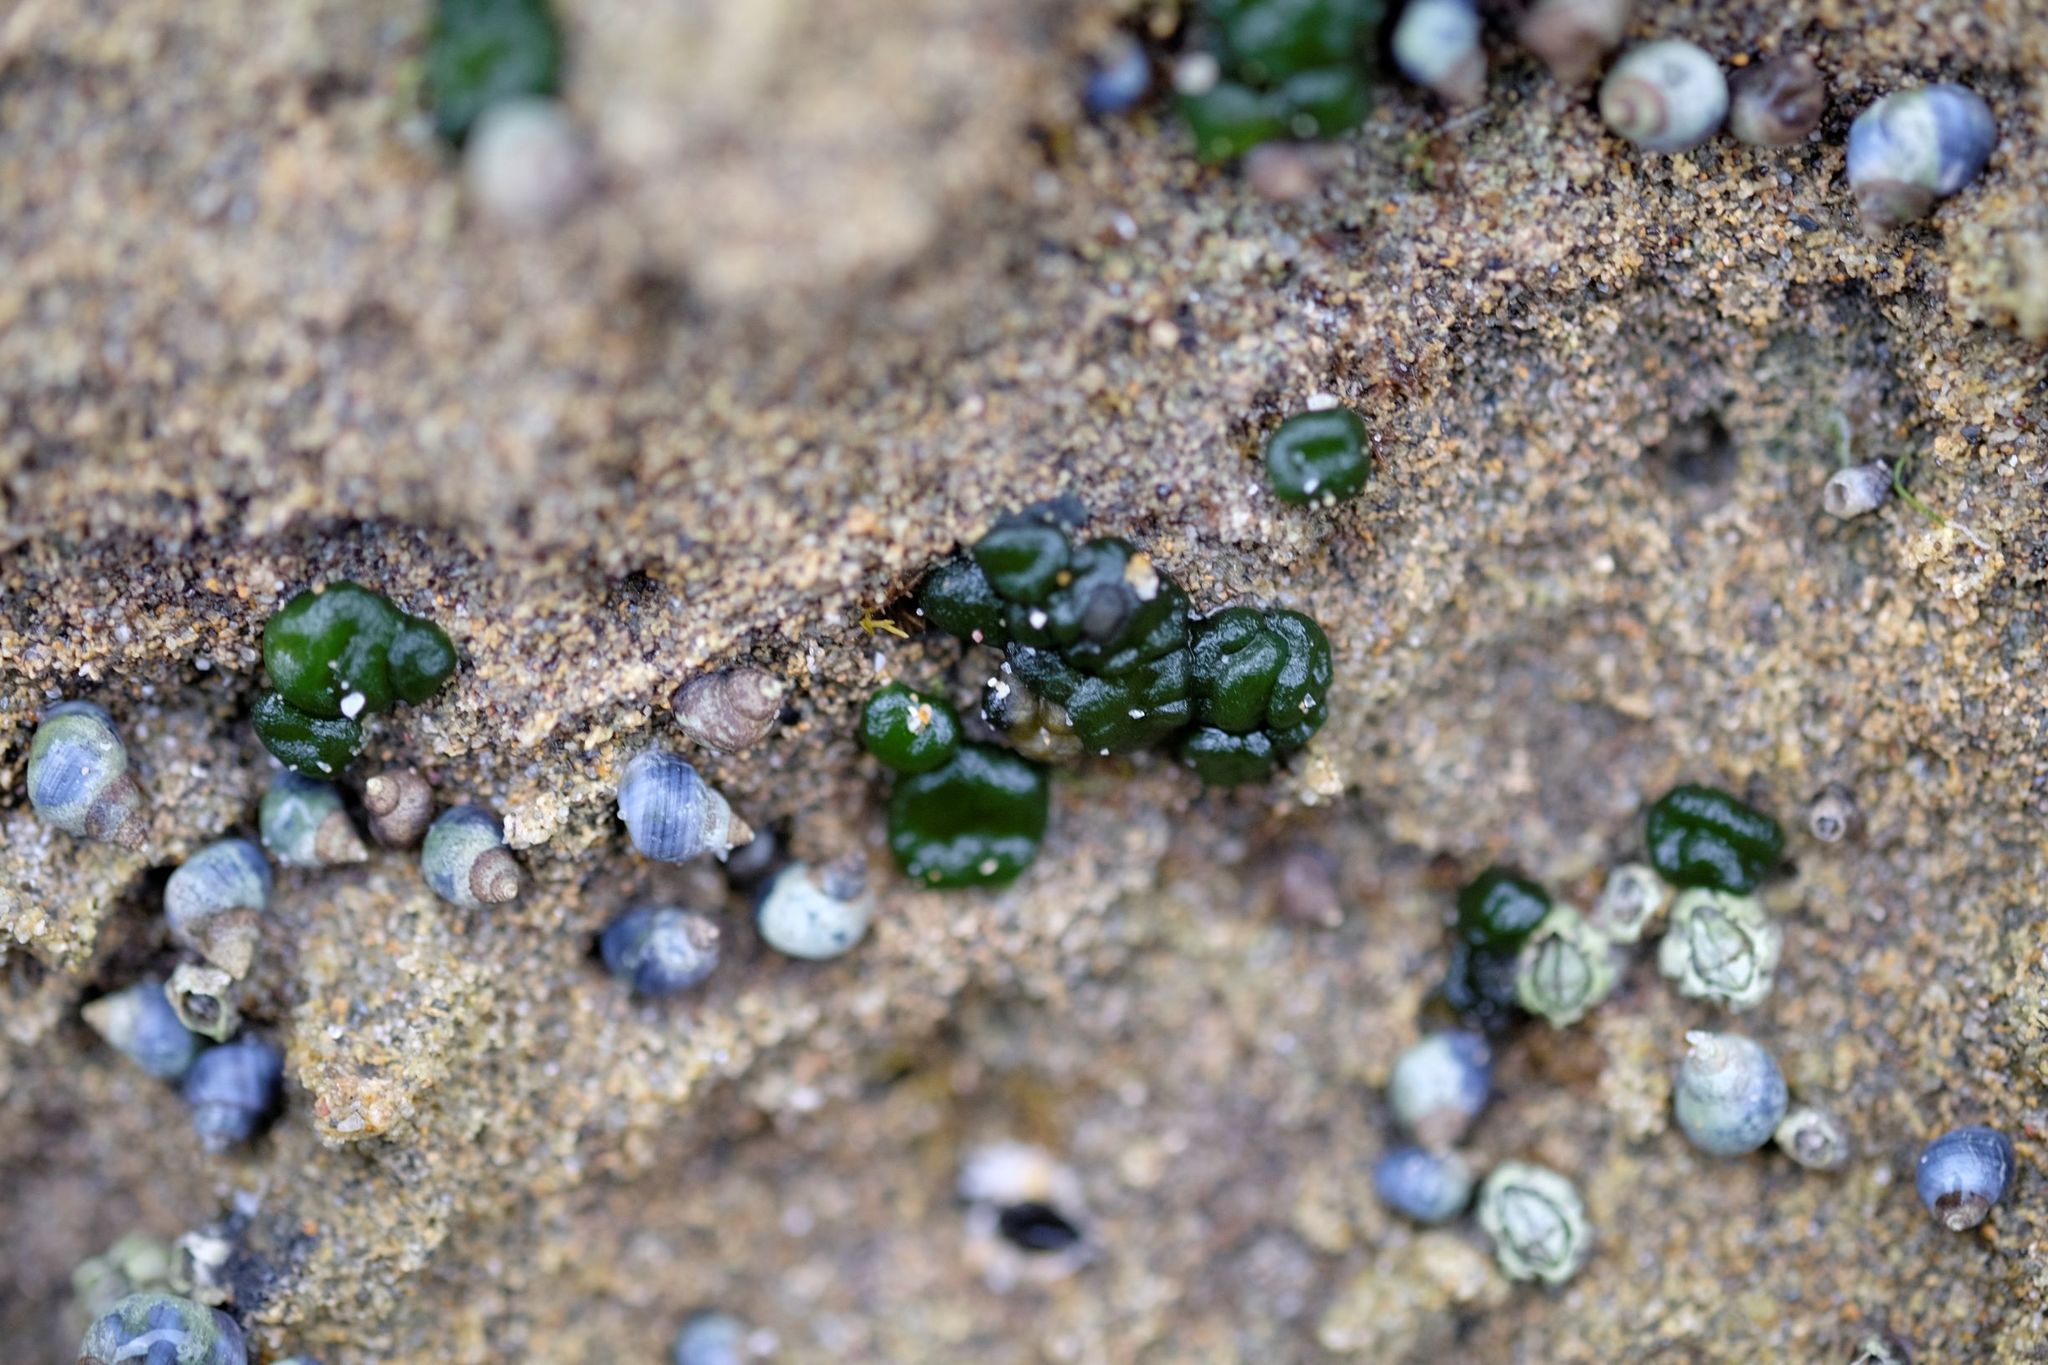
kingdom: Bacteria
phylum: Cyanobacteria
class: Cyanobacteriia
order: Cyanobacteriales
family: Rivulariaceae
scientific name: Rivulariaceae
